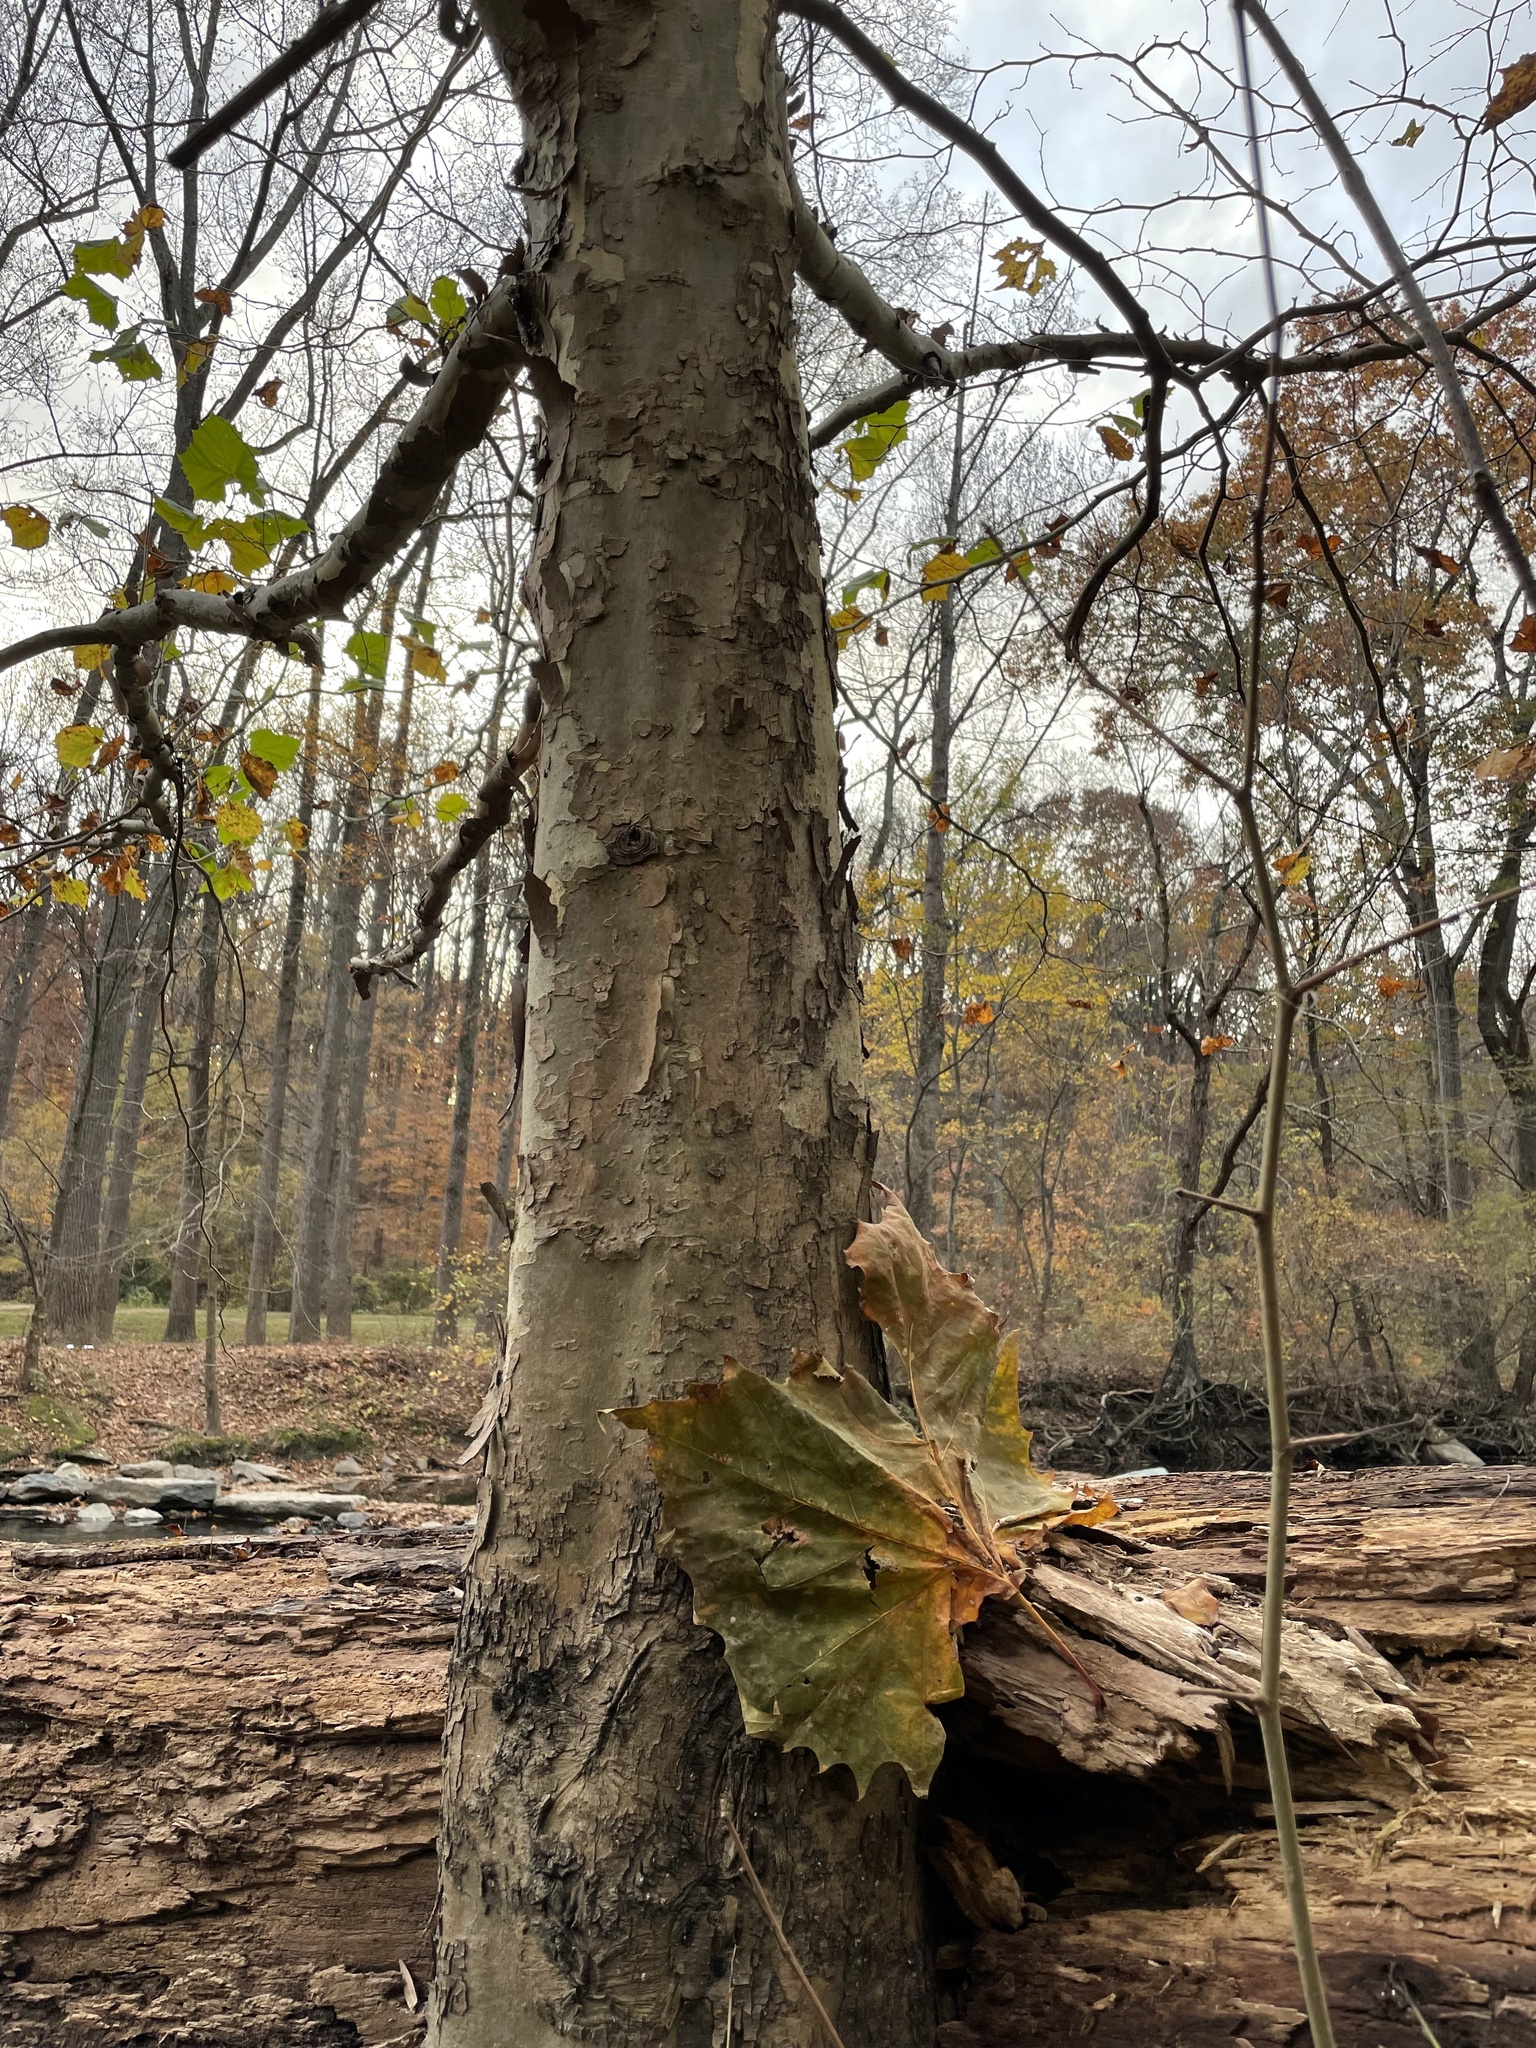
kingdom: Plantae
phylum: Tracheophyta
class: Magnoliopsida
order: Proteales
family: Platanaceae
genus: Platanus
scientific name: Platanus occidentalis
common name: American sycamore
